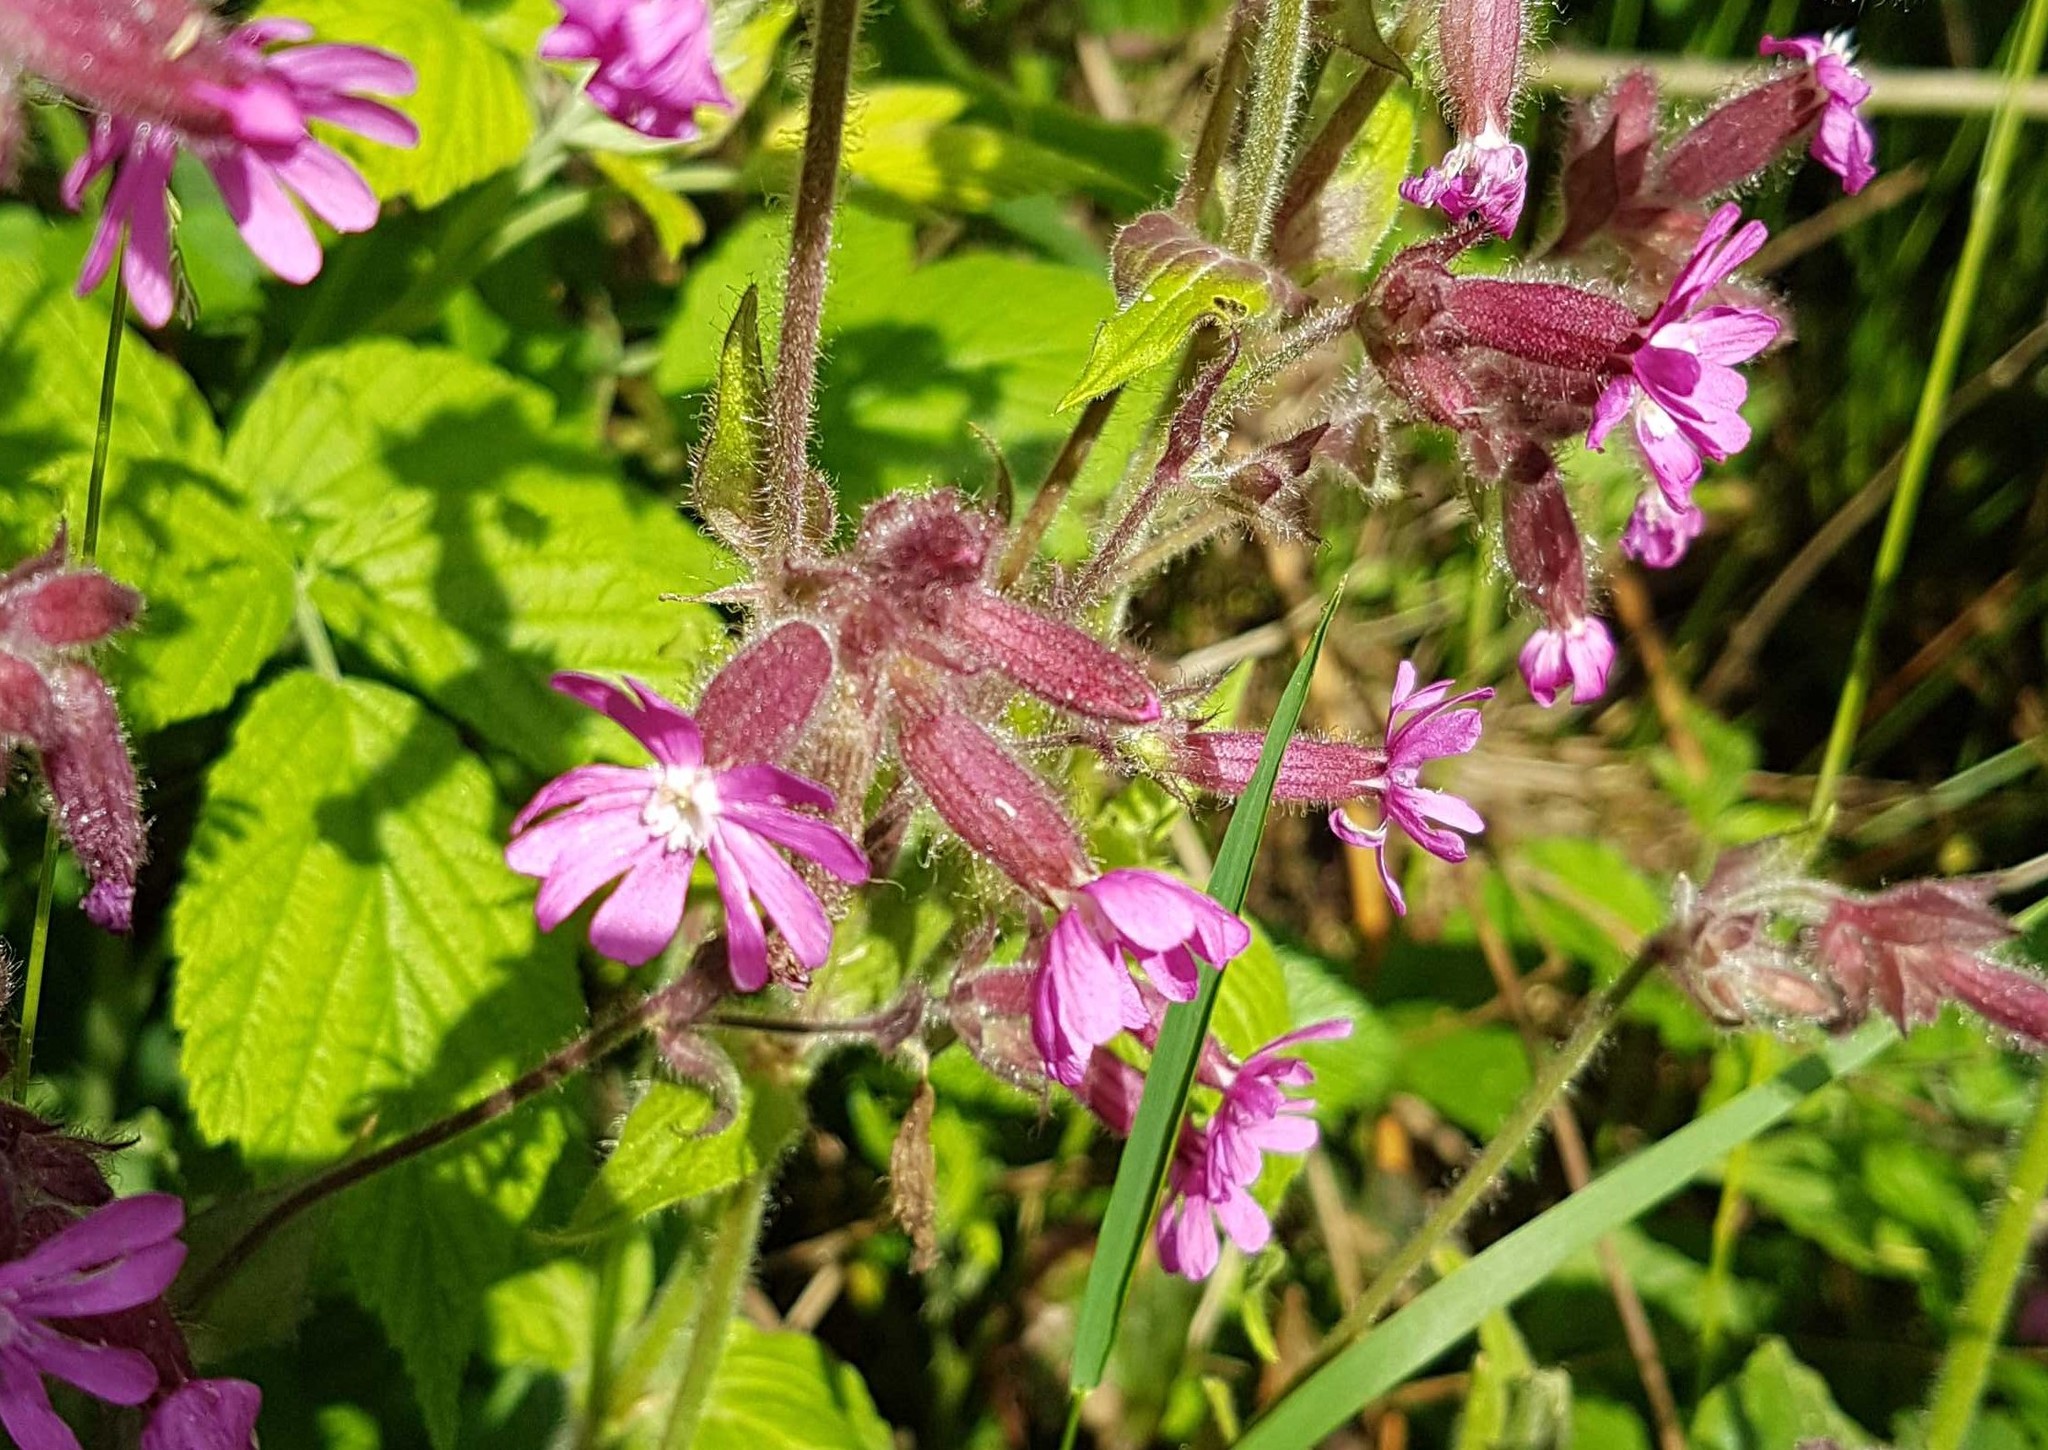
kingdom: Plantae
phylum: Tracheophyta
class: Magnoliopsida
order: Caryophyllales
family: Caryophyllaceae
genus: Silene
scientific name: Silene dioica
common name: Red campion
